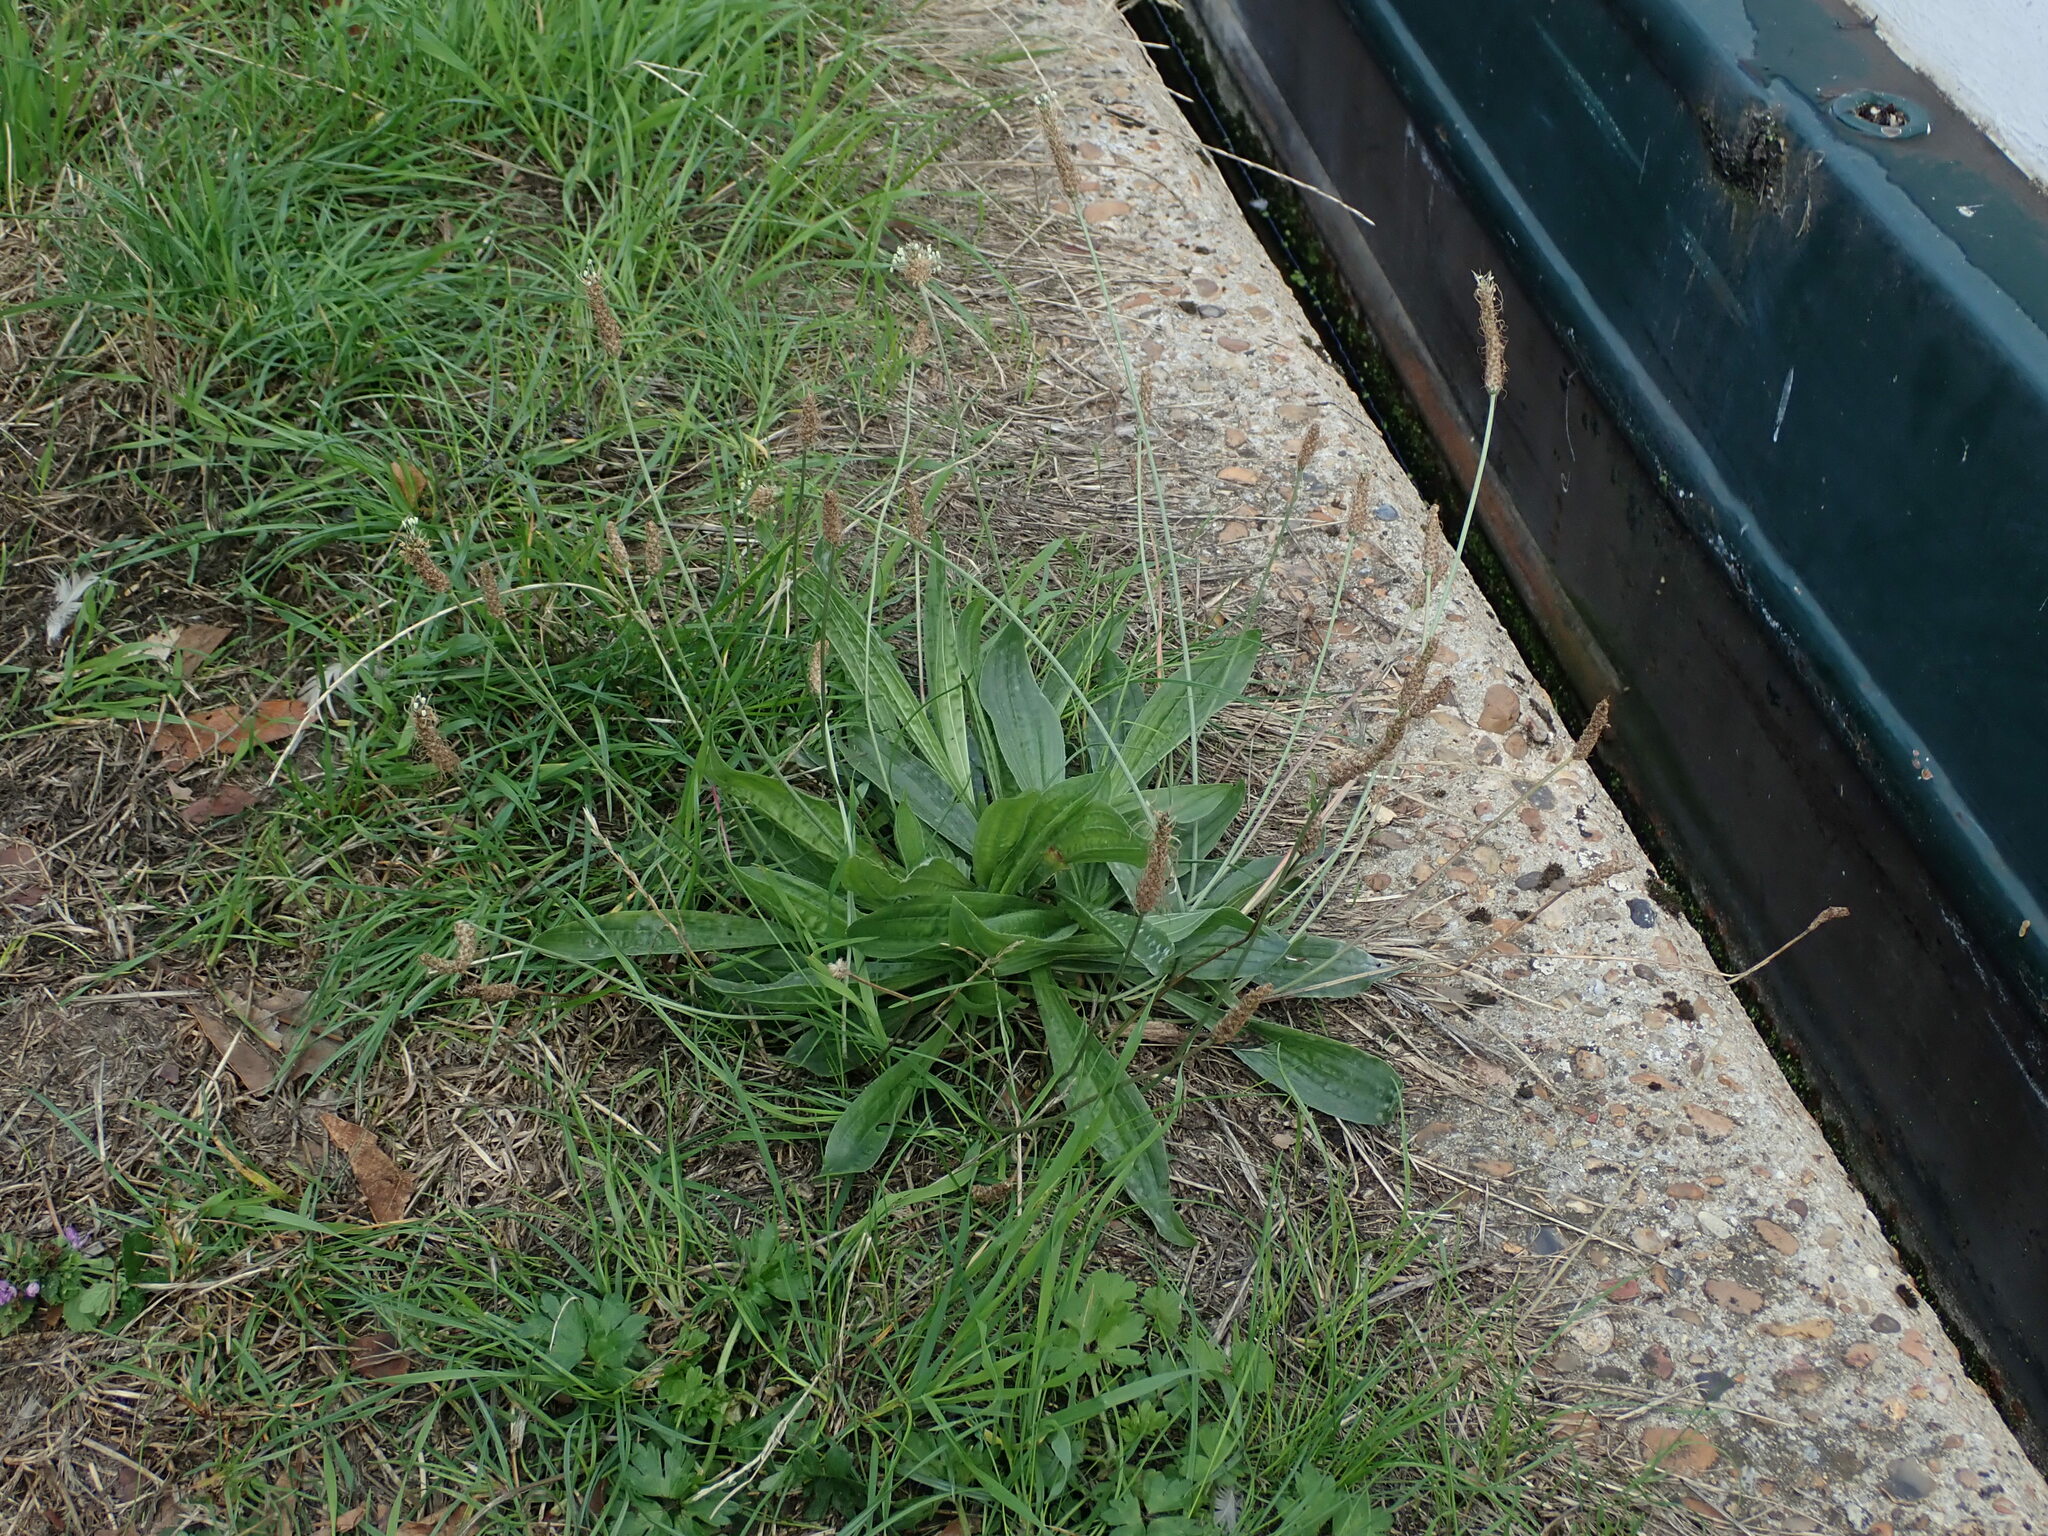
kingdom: Plantae
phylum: Tracheophyta
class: Magnoliopsida
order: Lamiales
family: Plantaginaceae
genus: Plantago
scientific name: Plantago lanceolata
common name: Ribwort plantain
